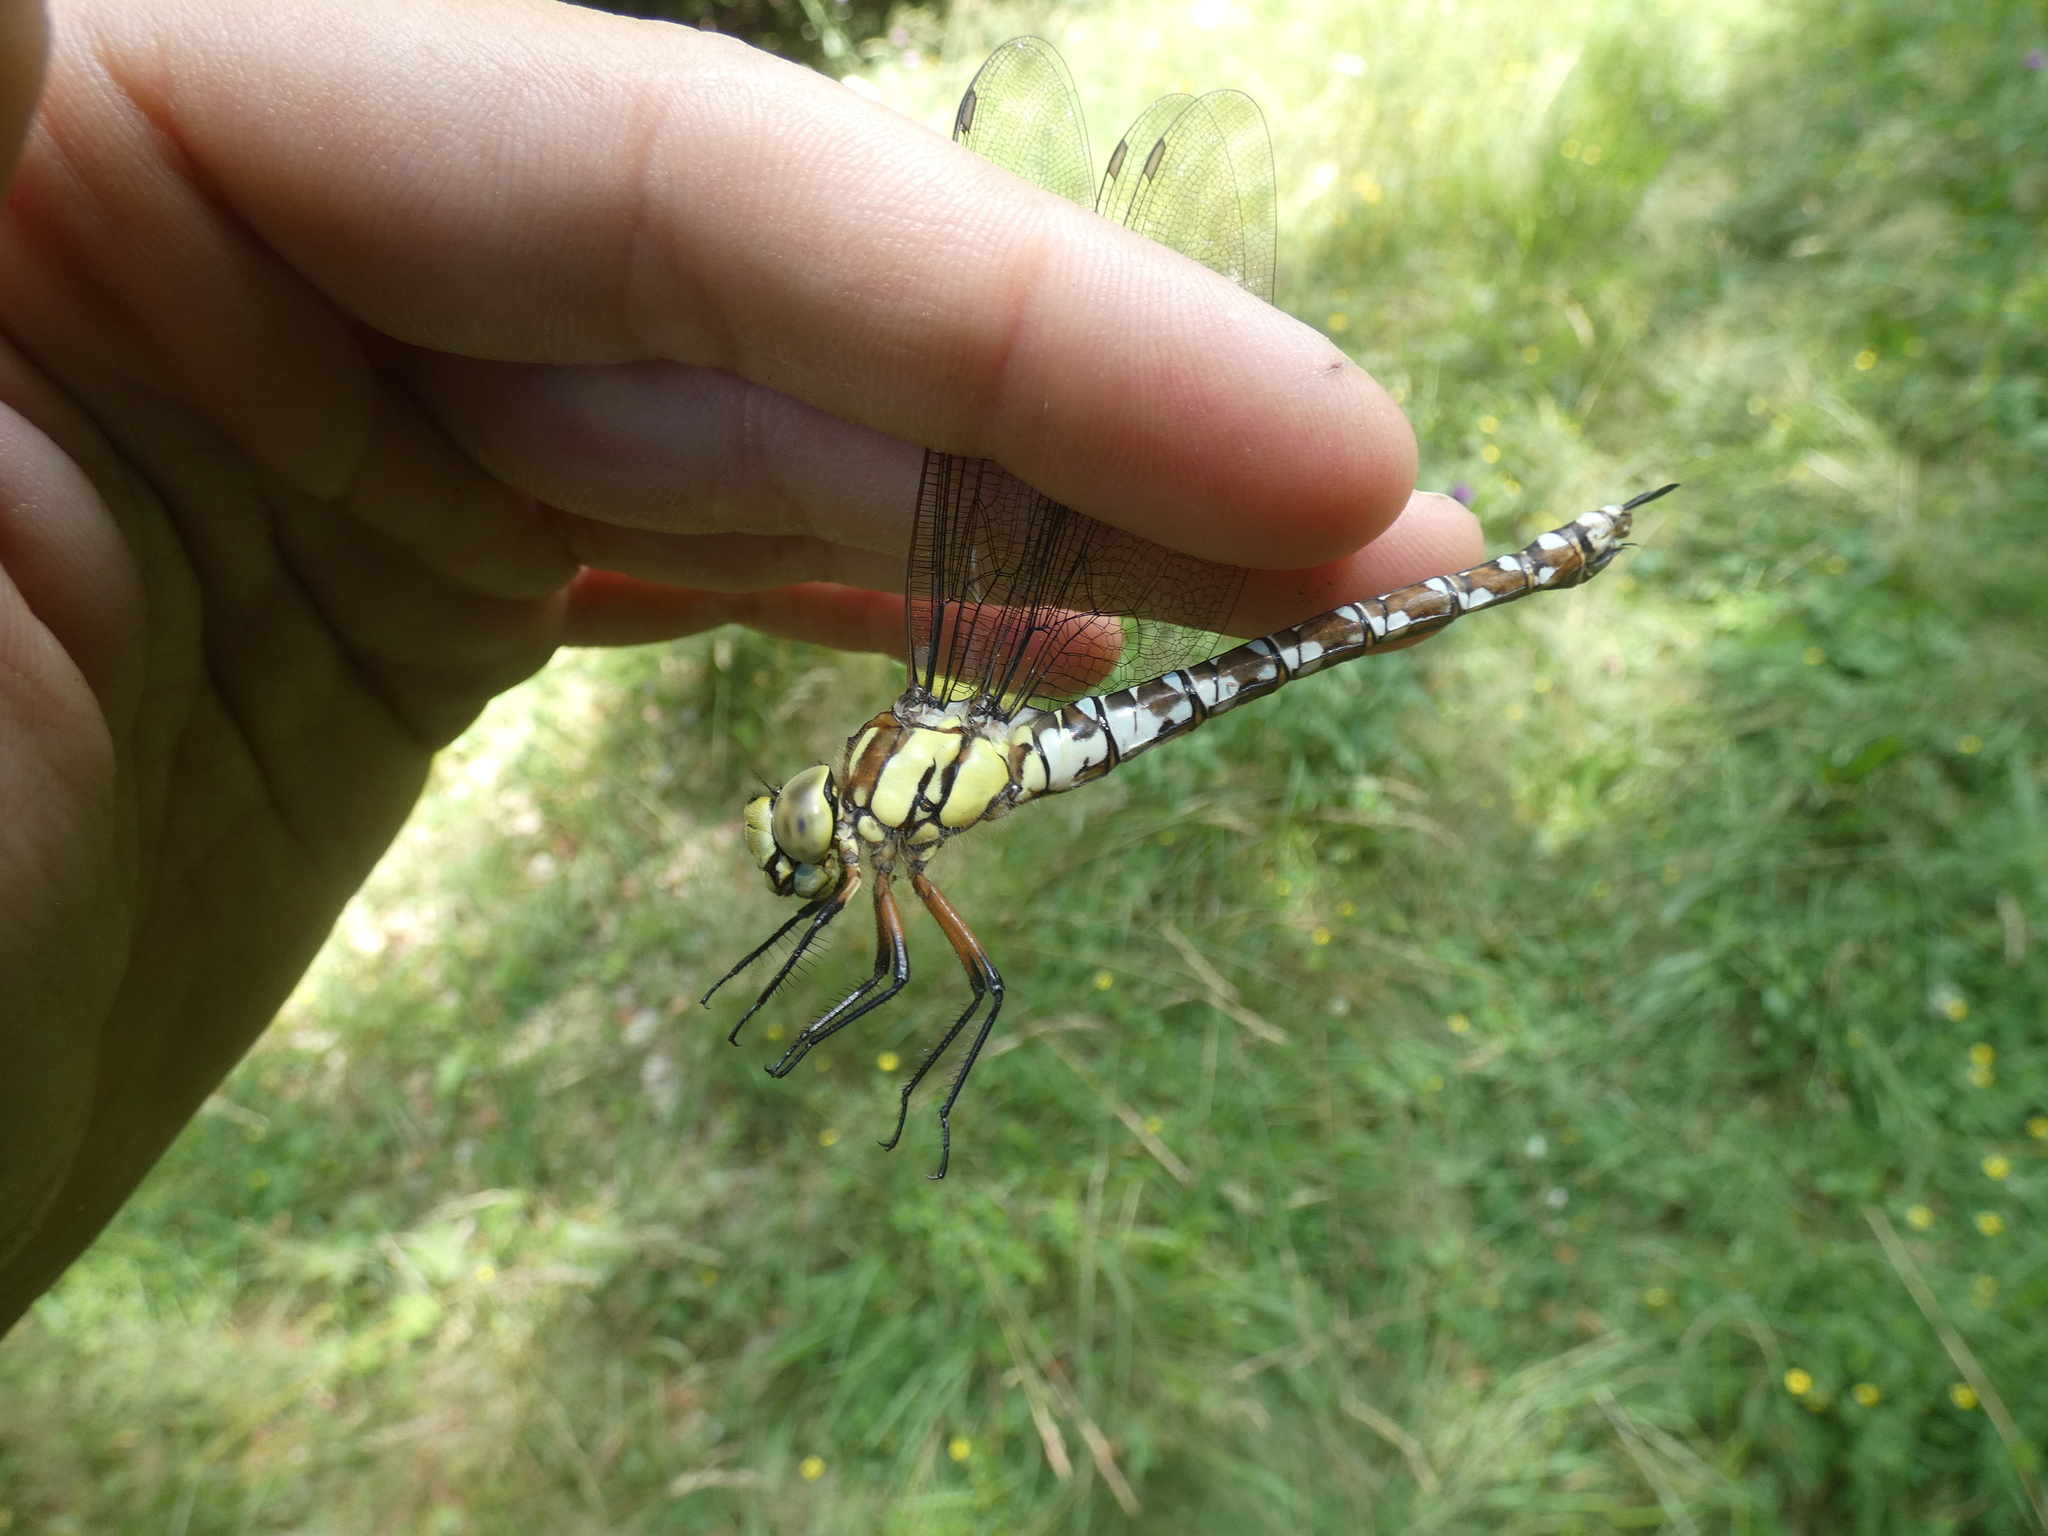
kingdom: Animalia
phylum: Arthropoda
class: Insecta
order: Odonata
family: Aeshnidae
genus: Aeshna
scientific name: Aeshna cyanea
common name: Southern hawker
